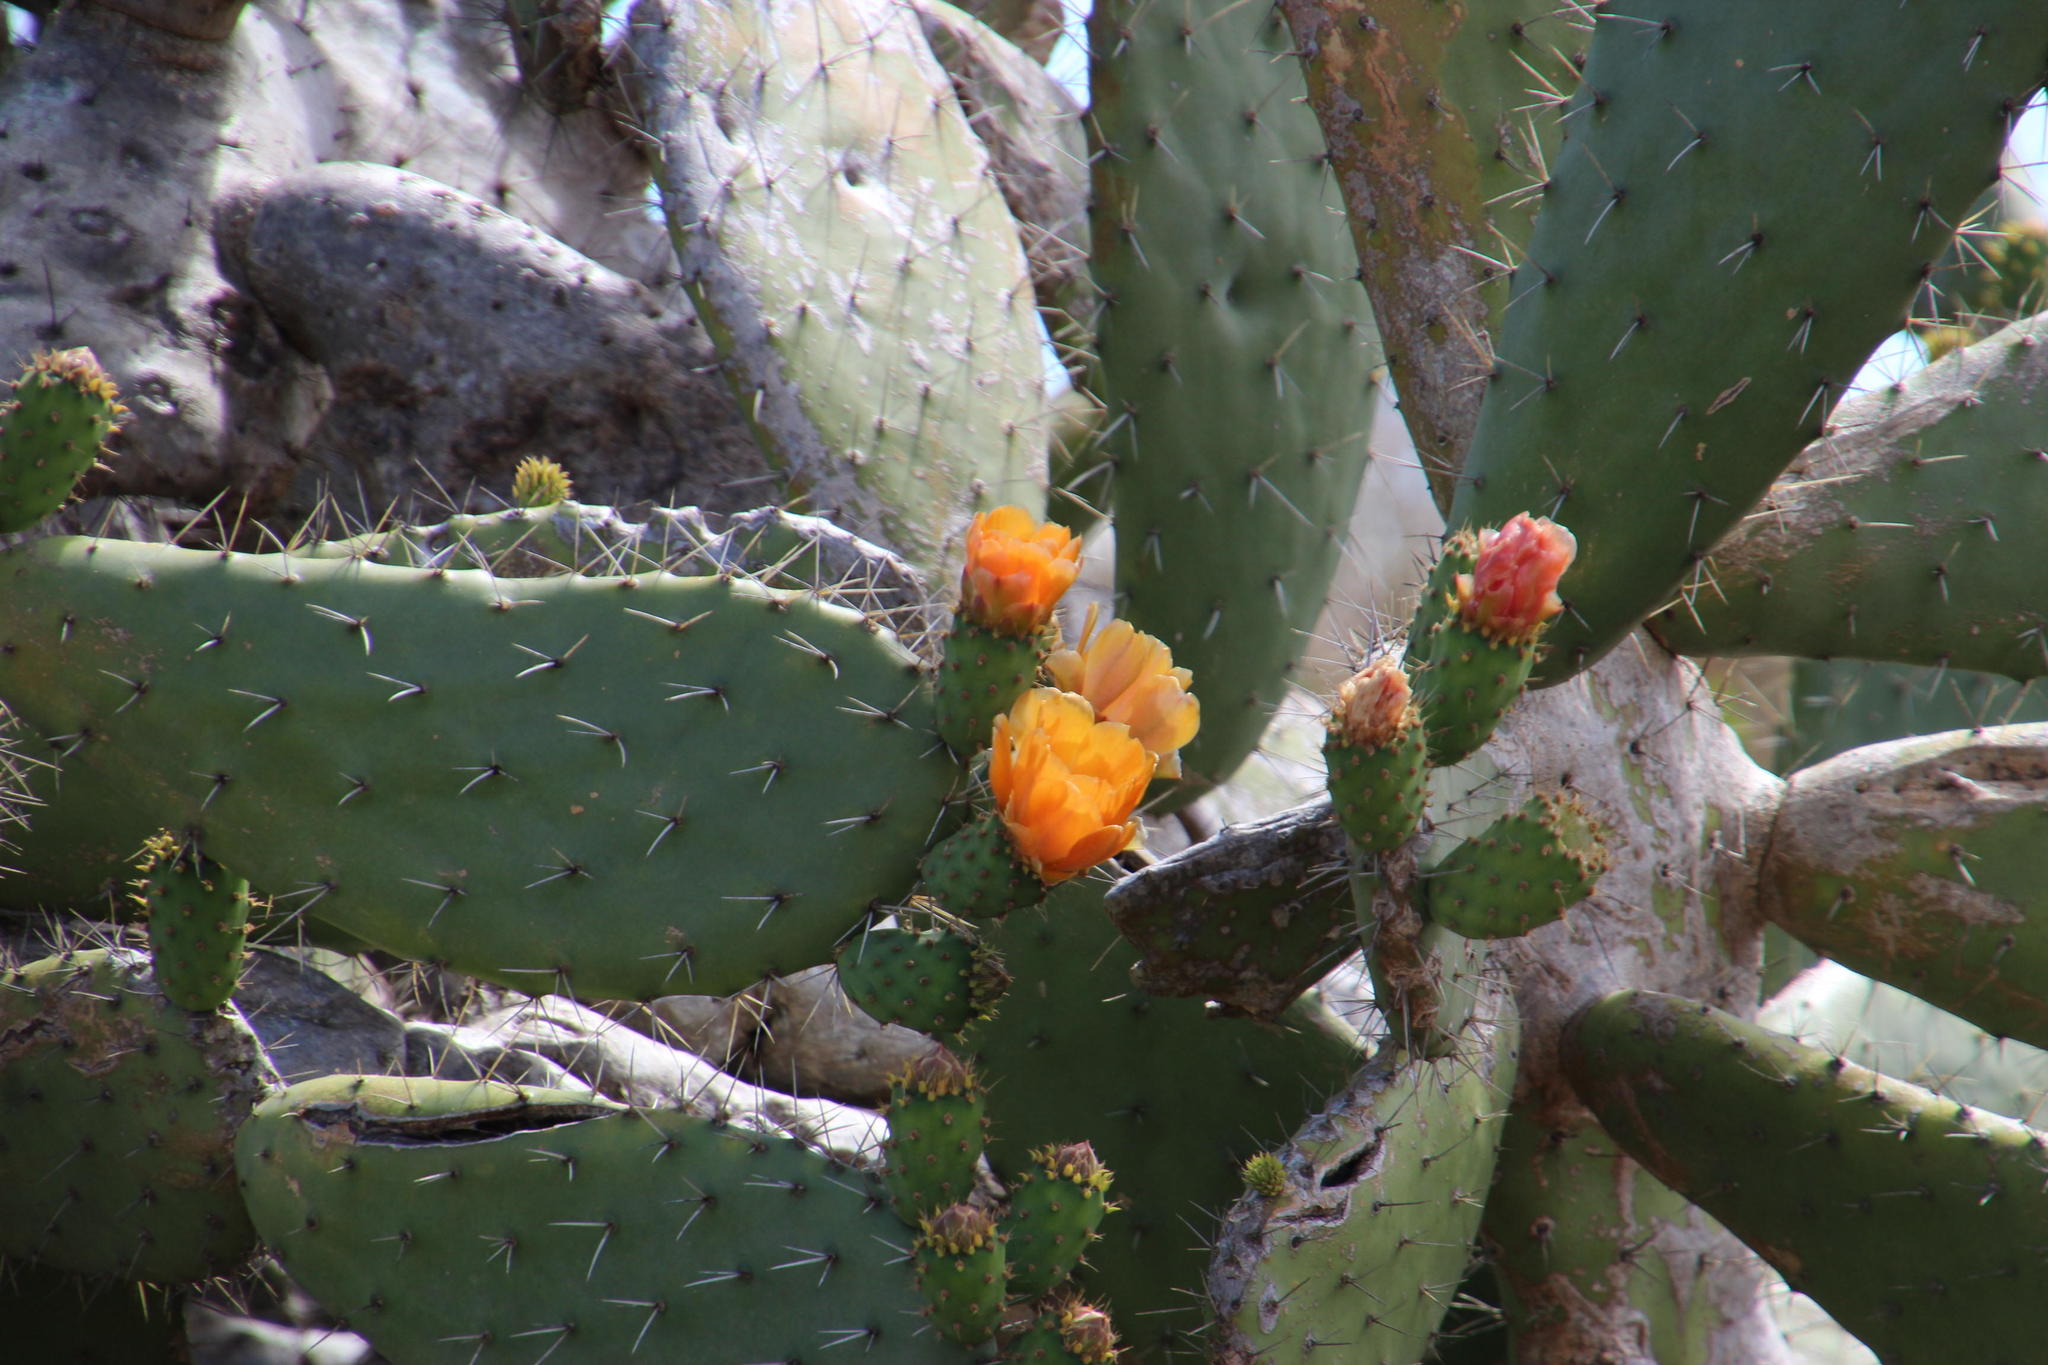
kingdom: Plantae
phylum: Tracheophyta
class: Magnoliopsida
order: Caryophyllales
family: Cactaceae
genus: Opuntia
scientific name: Opuntia ficus-indica
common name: Barbary fig
